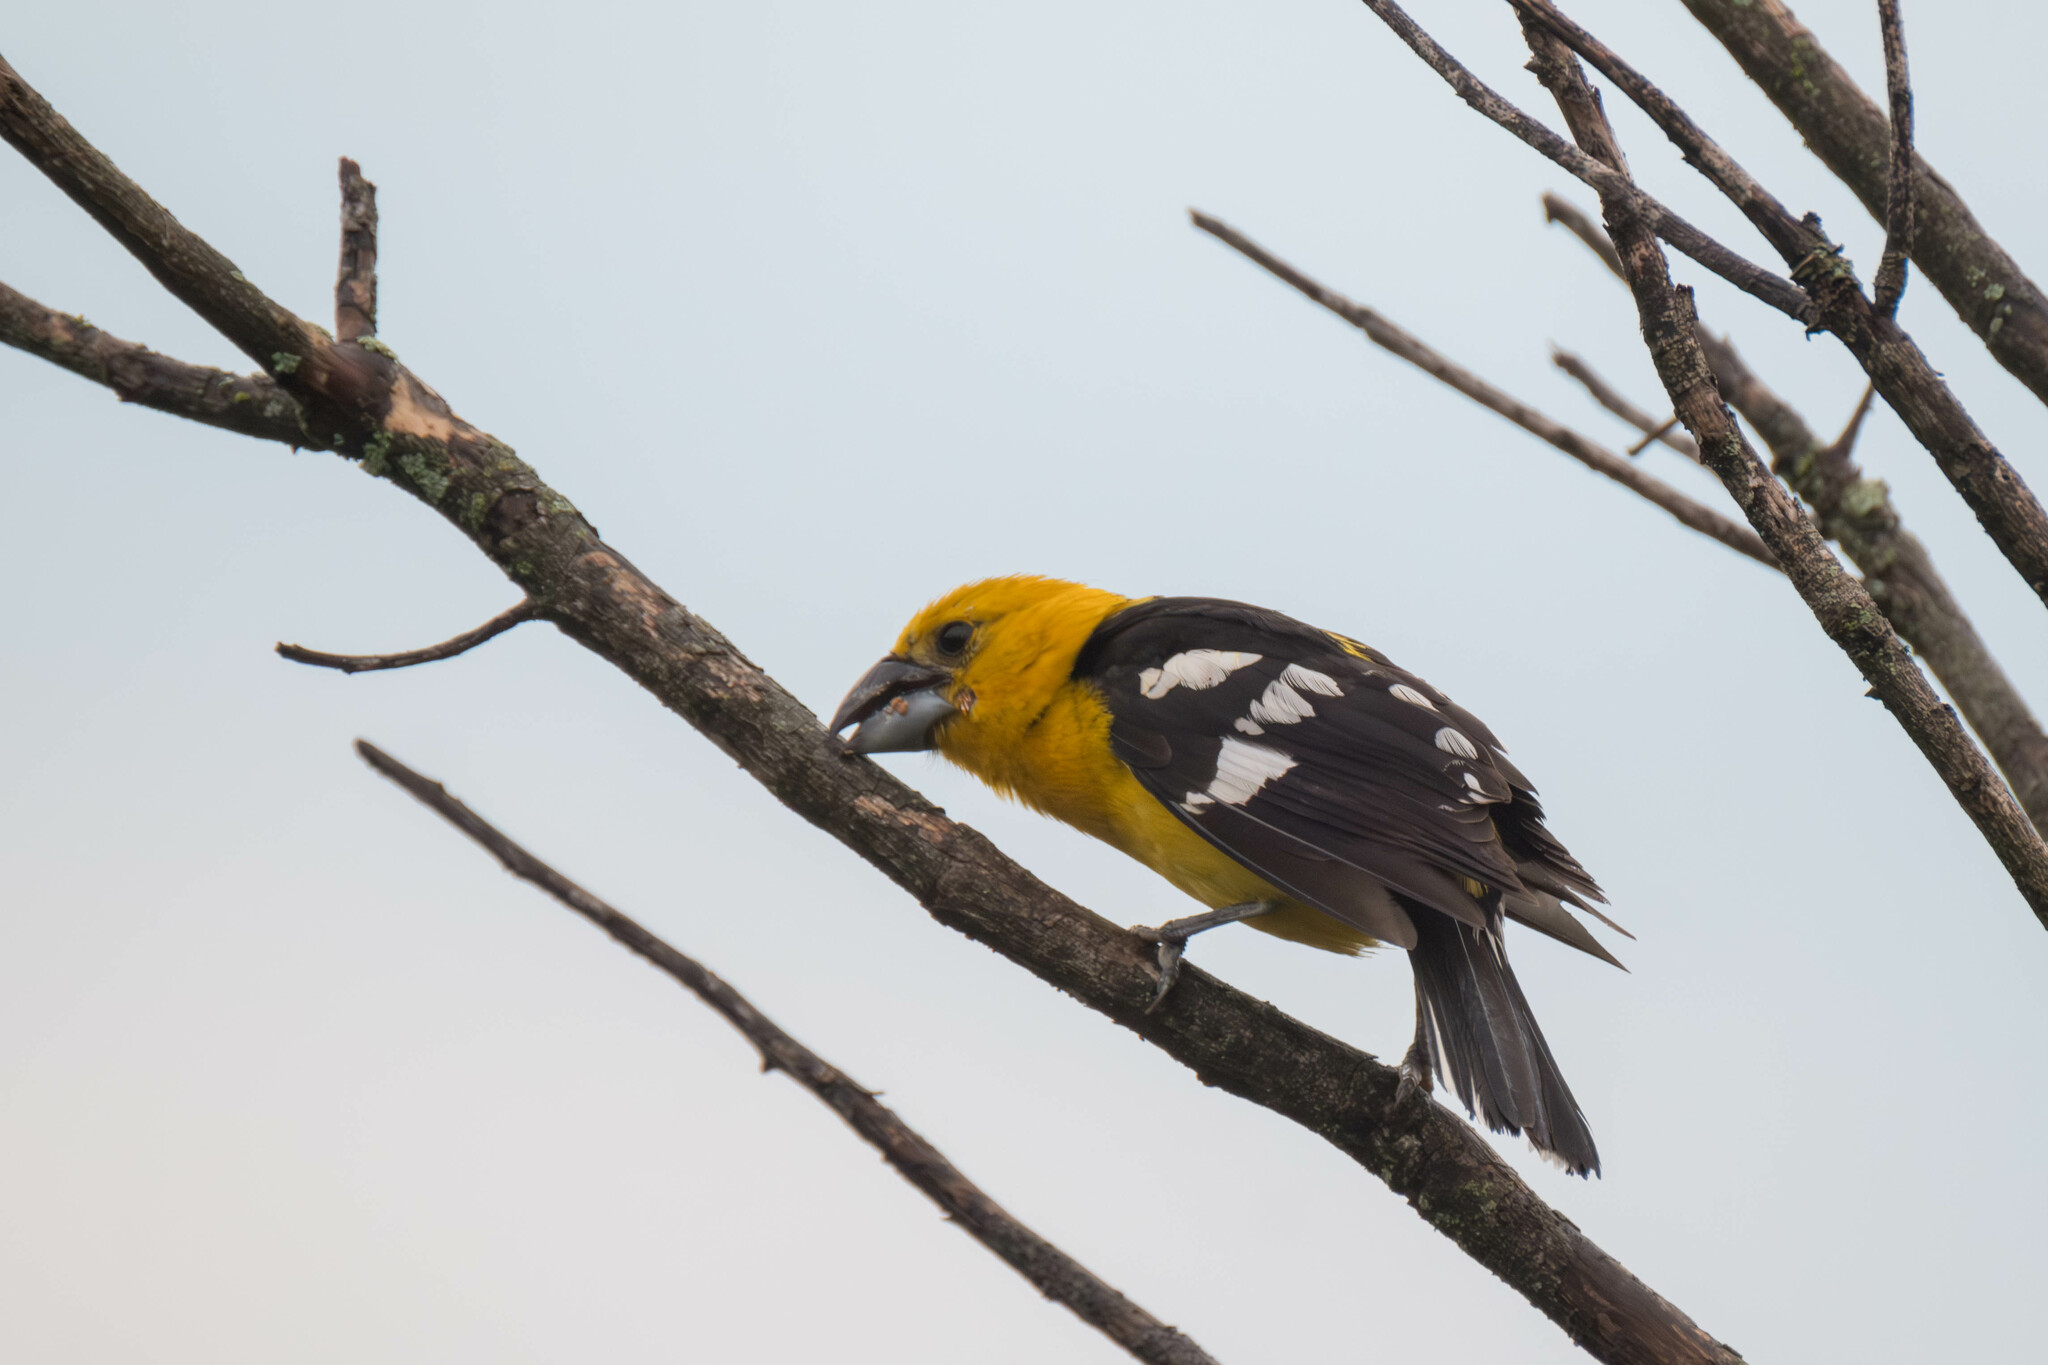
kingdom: Animalia
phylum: Chordata
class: Aves
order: Passeriformes
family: Cardinalidae
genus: Pheucticus
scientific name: Pheucticus chrysogaster
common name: Golden grosbeak
